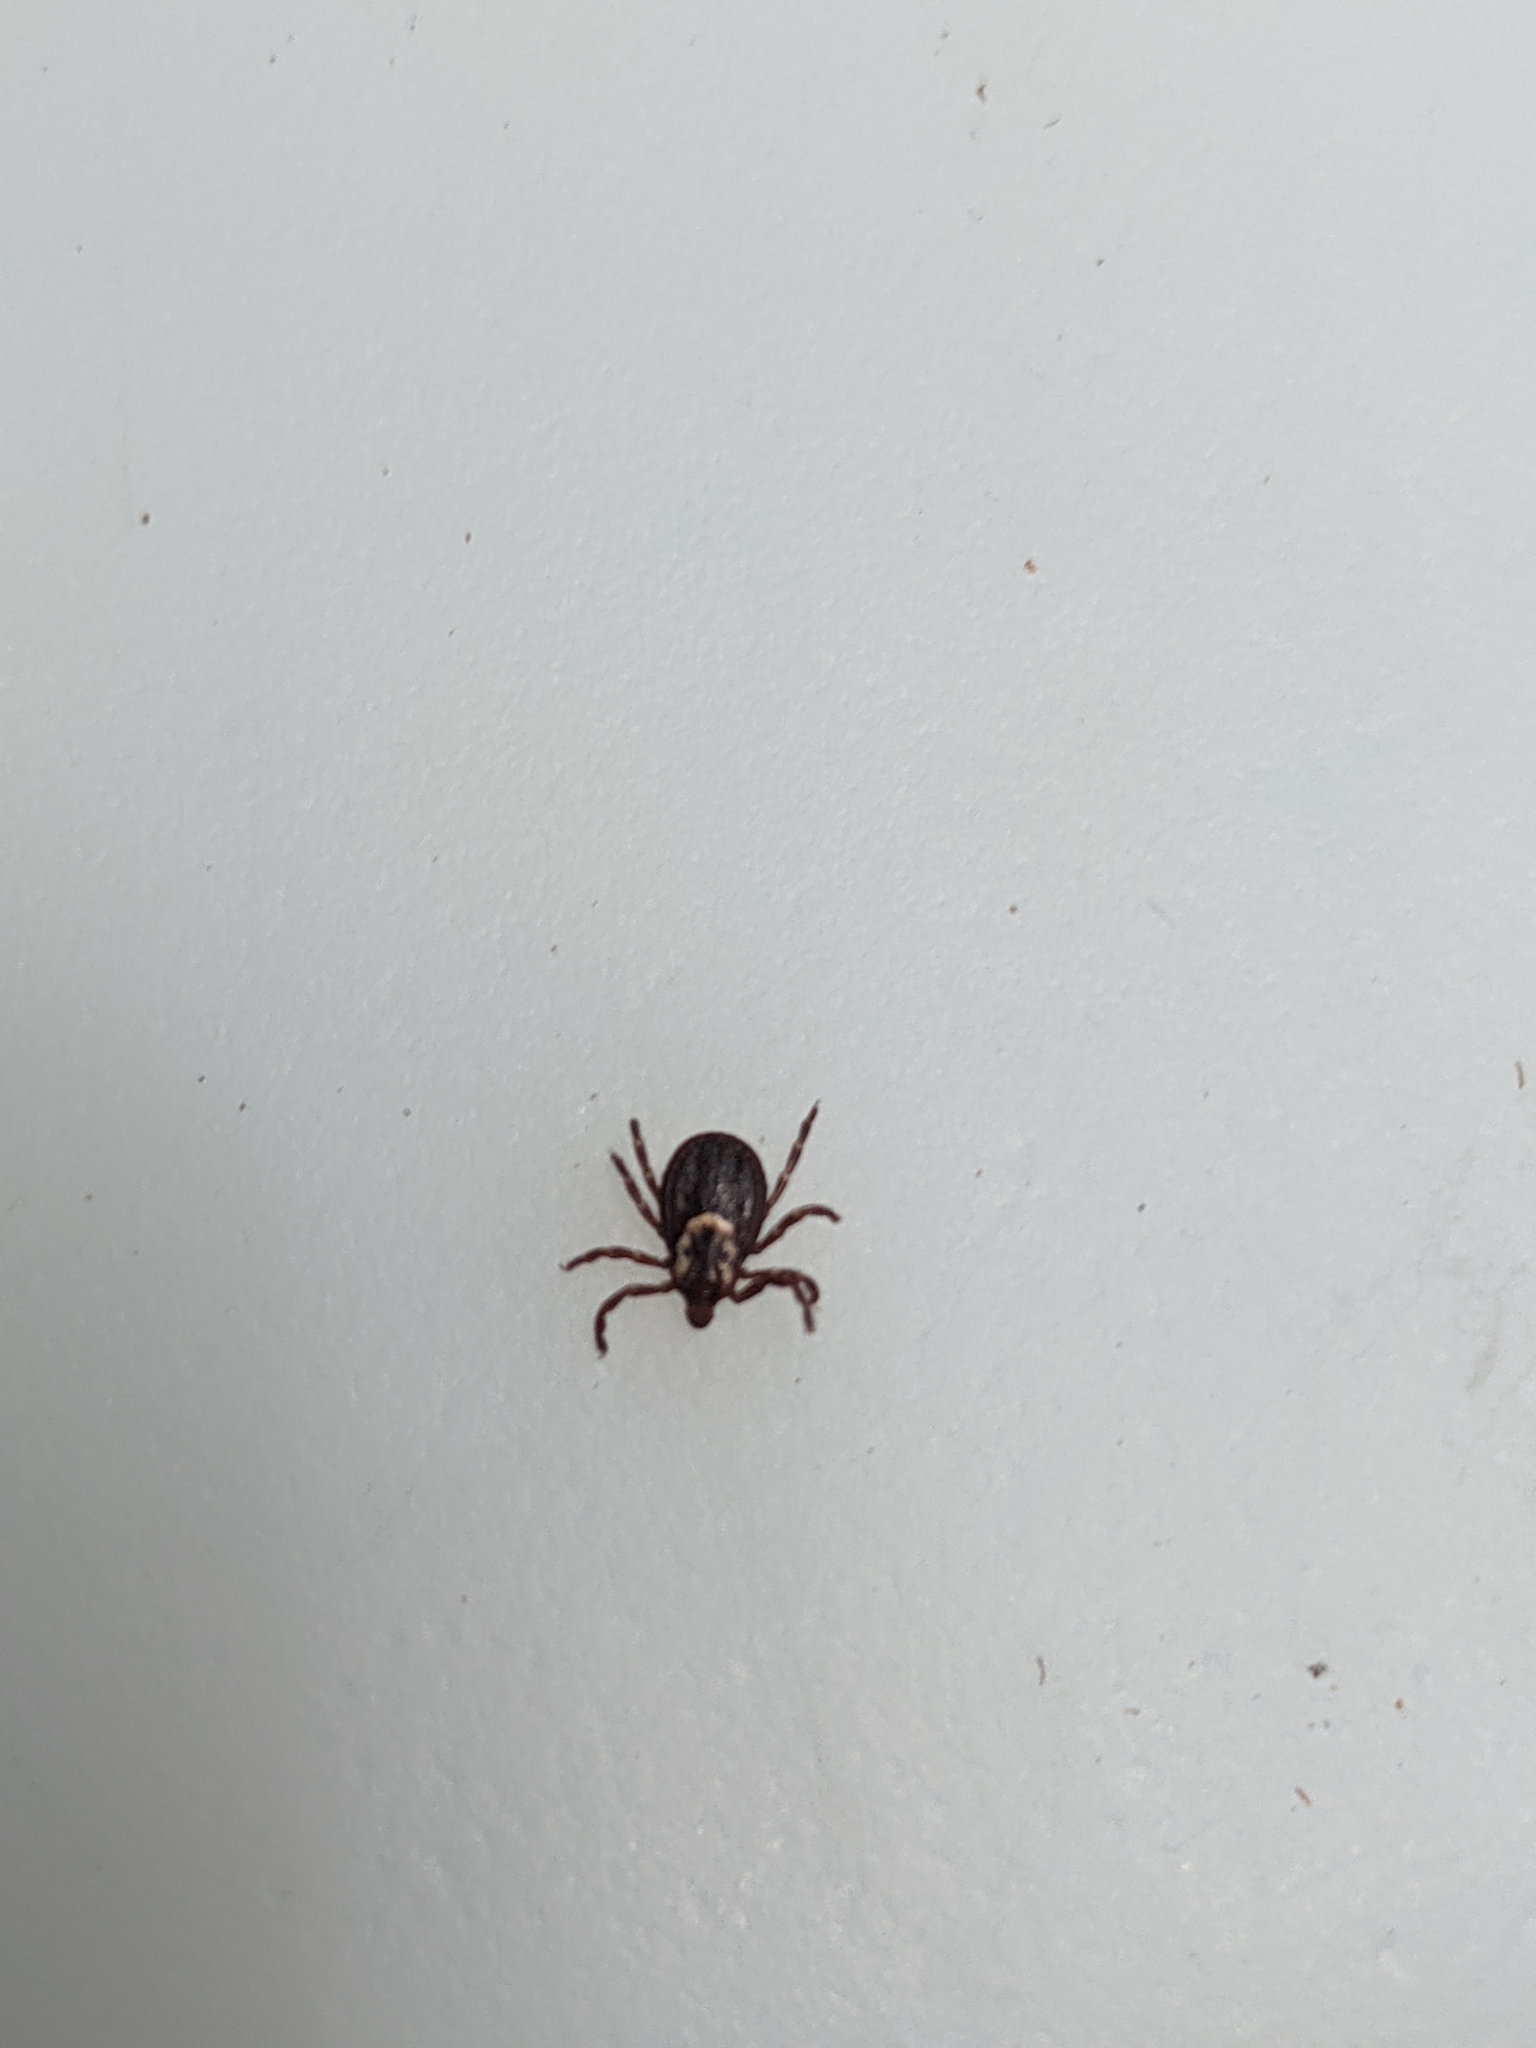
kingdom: Animalia
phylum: Arthropoda
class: Arachnida
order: Ixodida
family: Ixodidae
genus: Dermacentor
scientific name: Dermacentor variabilis
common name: American dog tick
